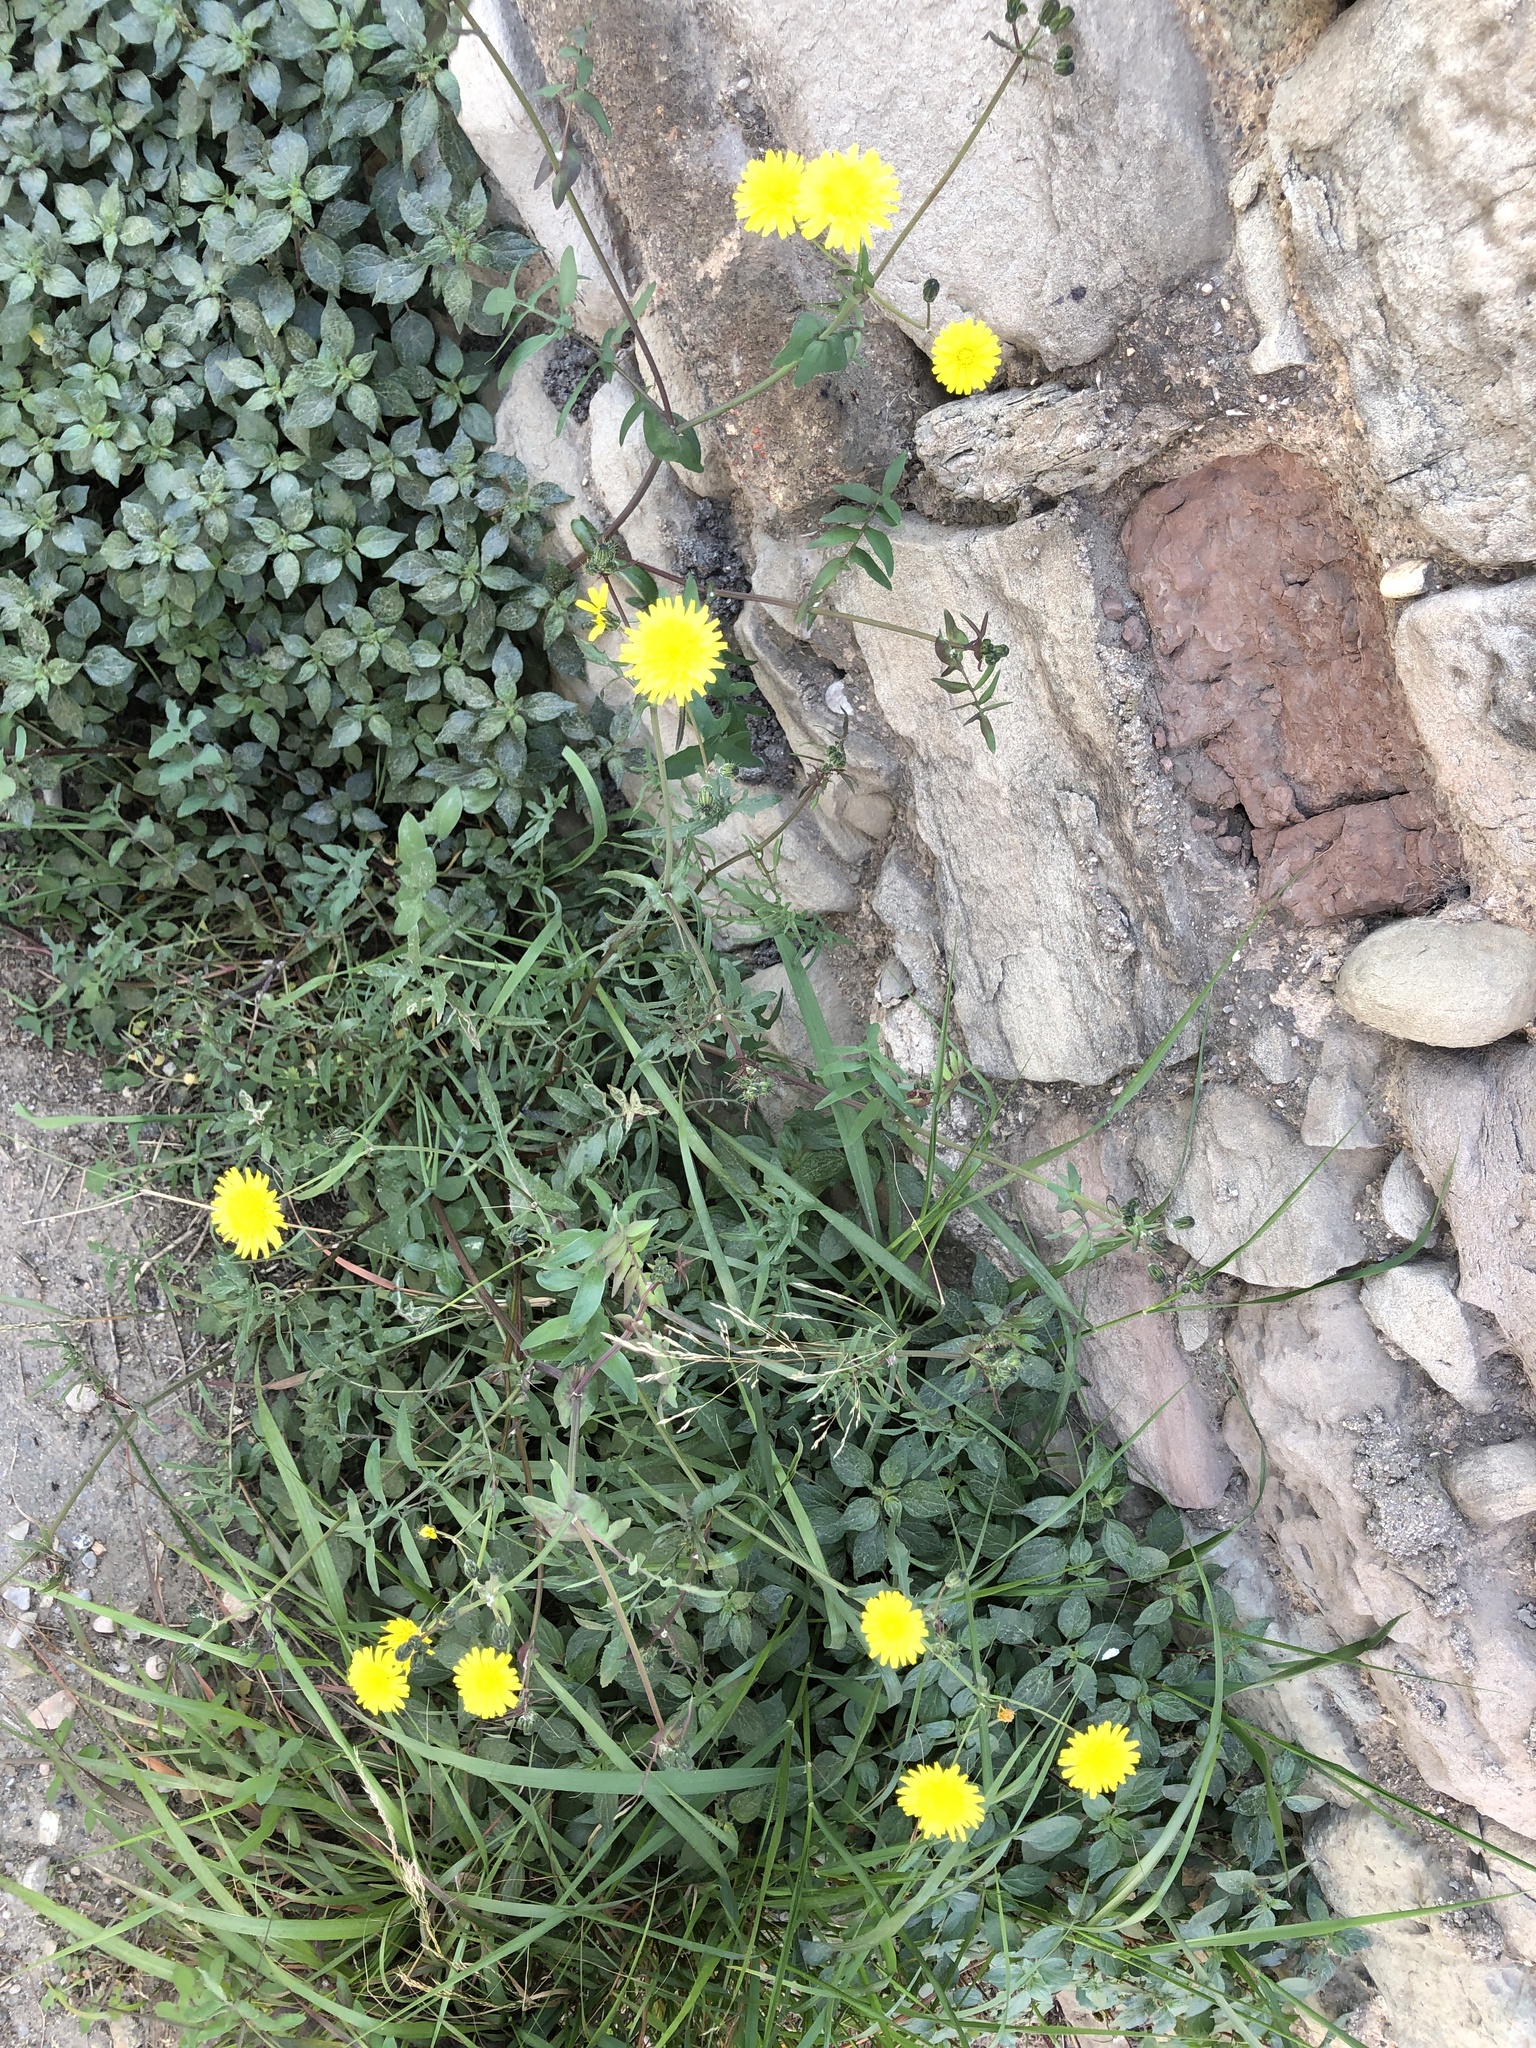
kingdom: Plantae
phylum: Tracheophyta
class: Magnoliopsida
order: Asterales
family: Asteraceae
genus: Sonchus
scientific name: Sonchus tenerrimus
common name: Clammy sowthistle
